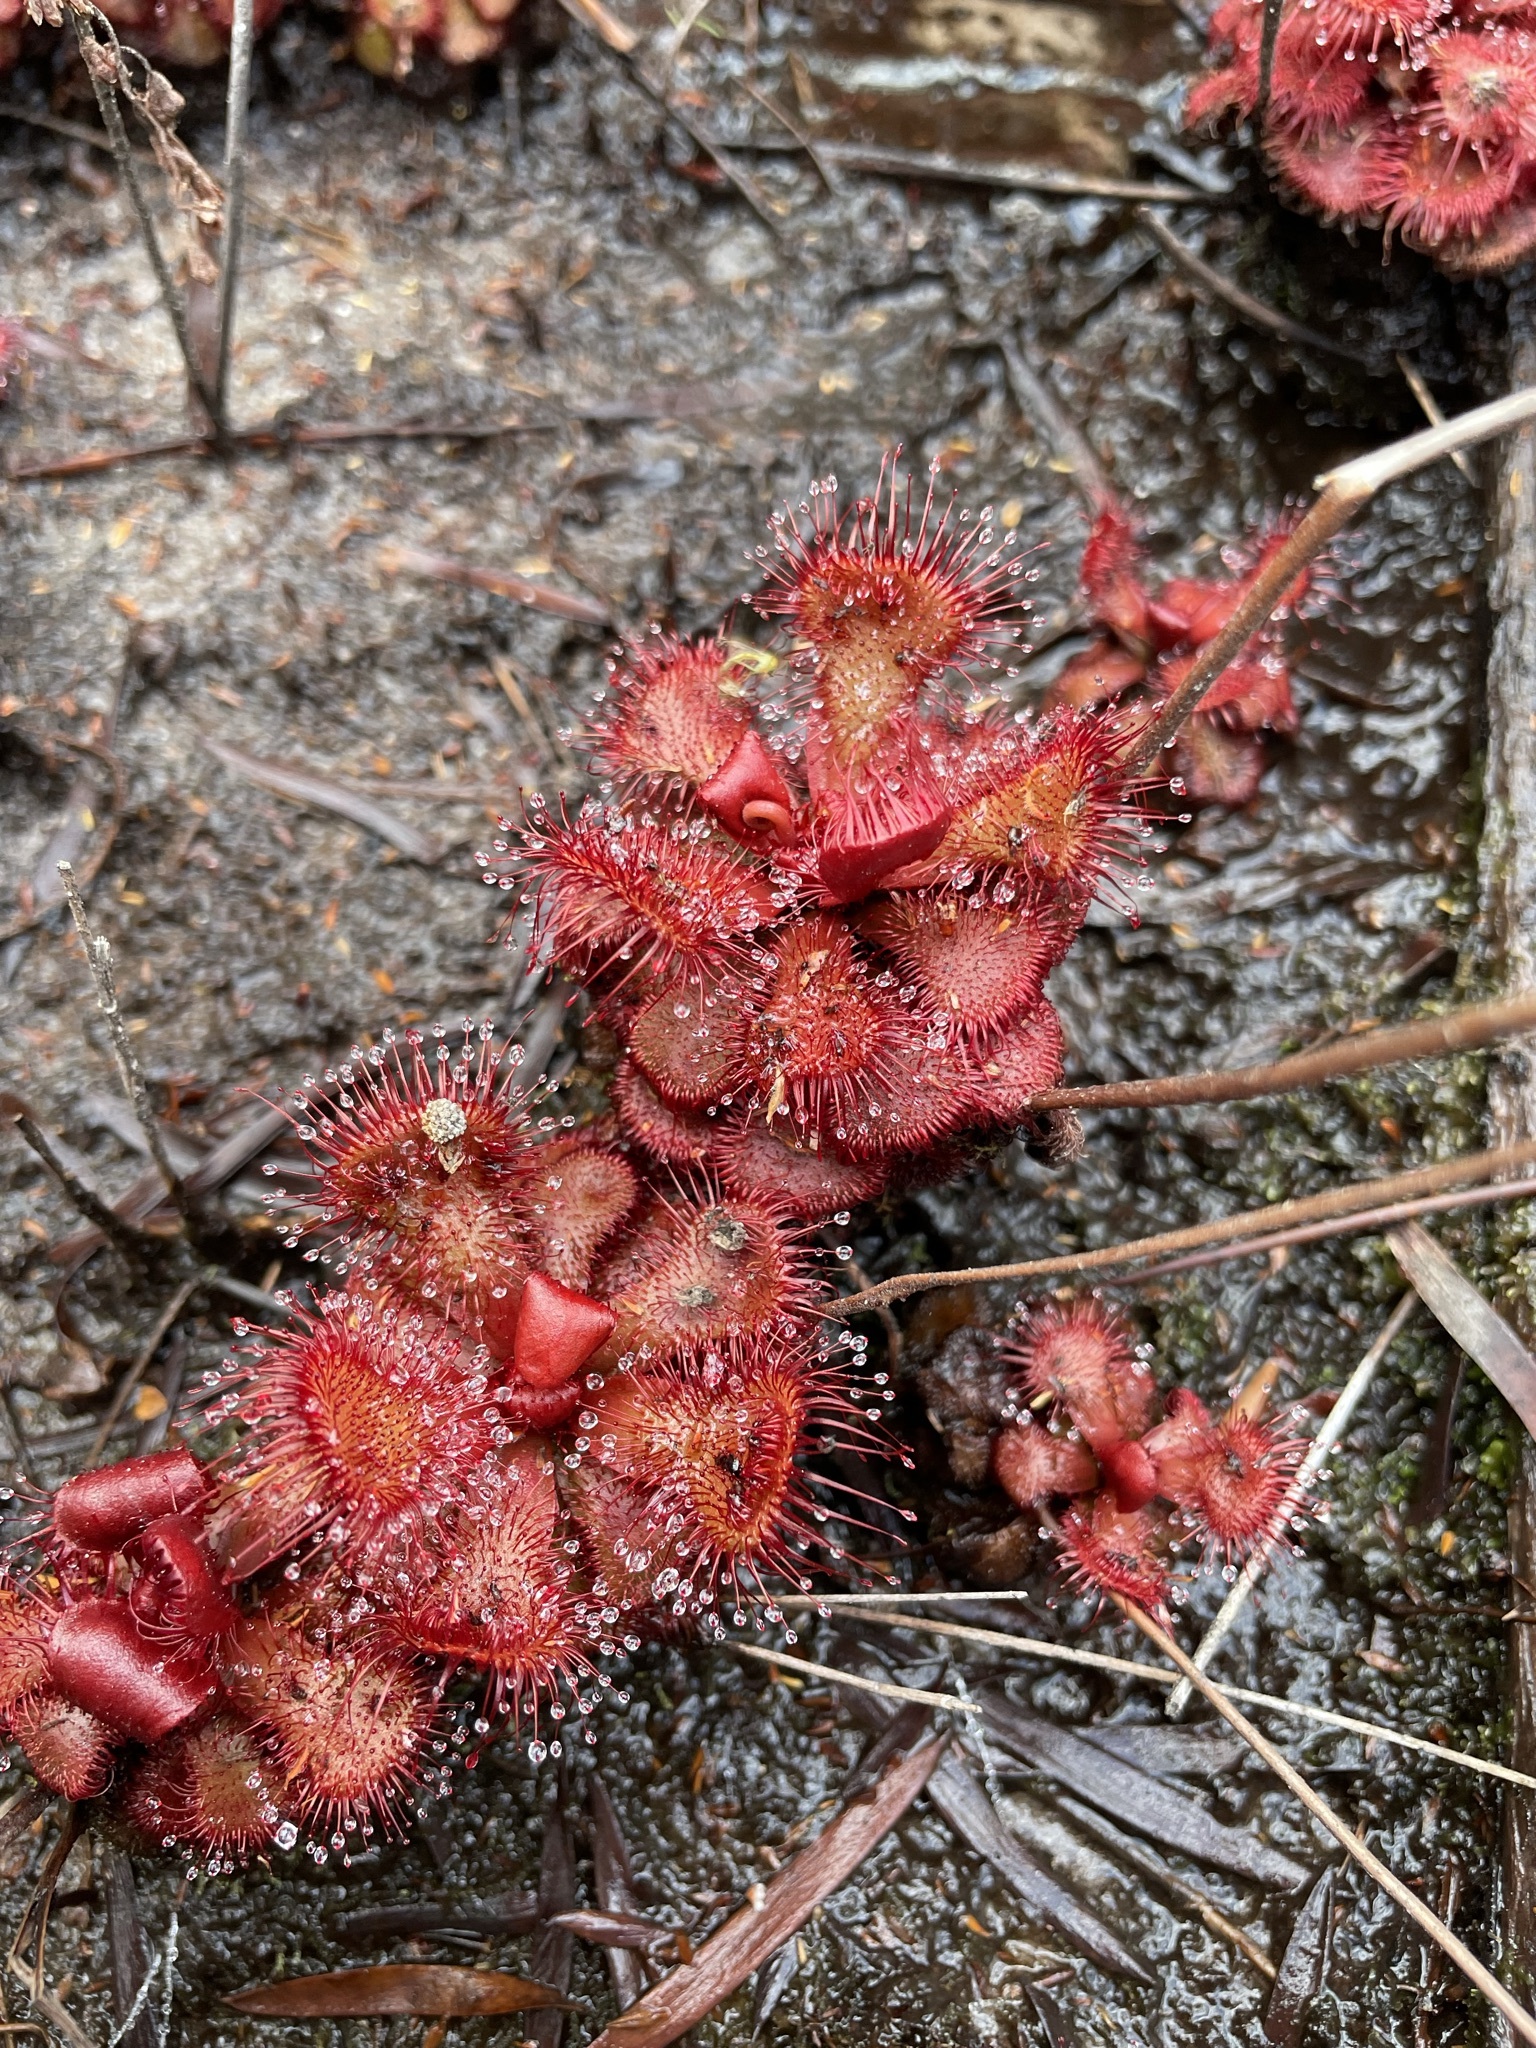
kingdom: Plantae
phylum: Tracheophyta
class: Magnoliopsida
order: Caryophyllales
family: Droseraceae
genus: Drosera
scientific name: Drosera slackii
